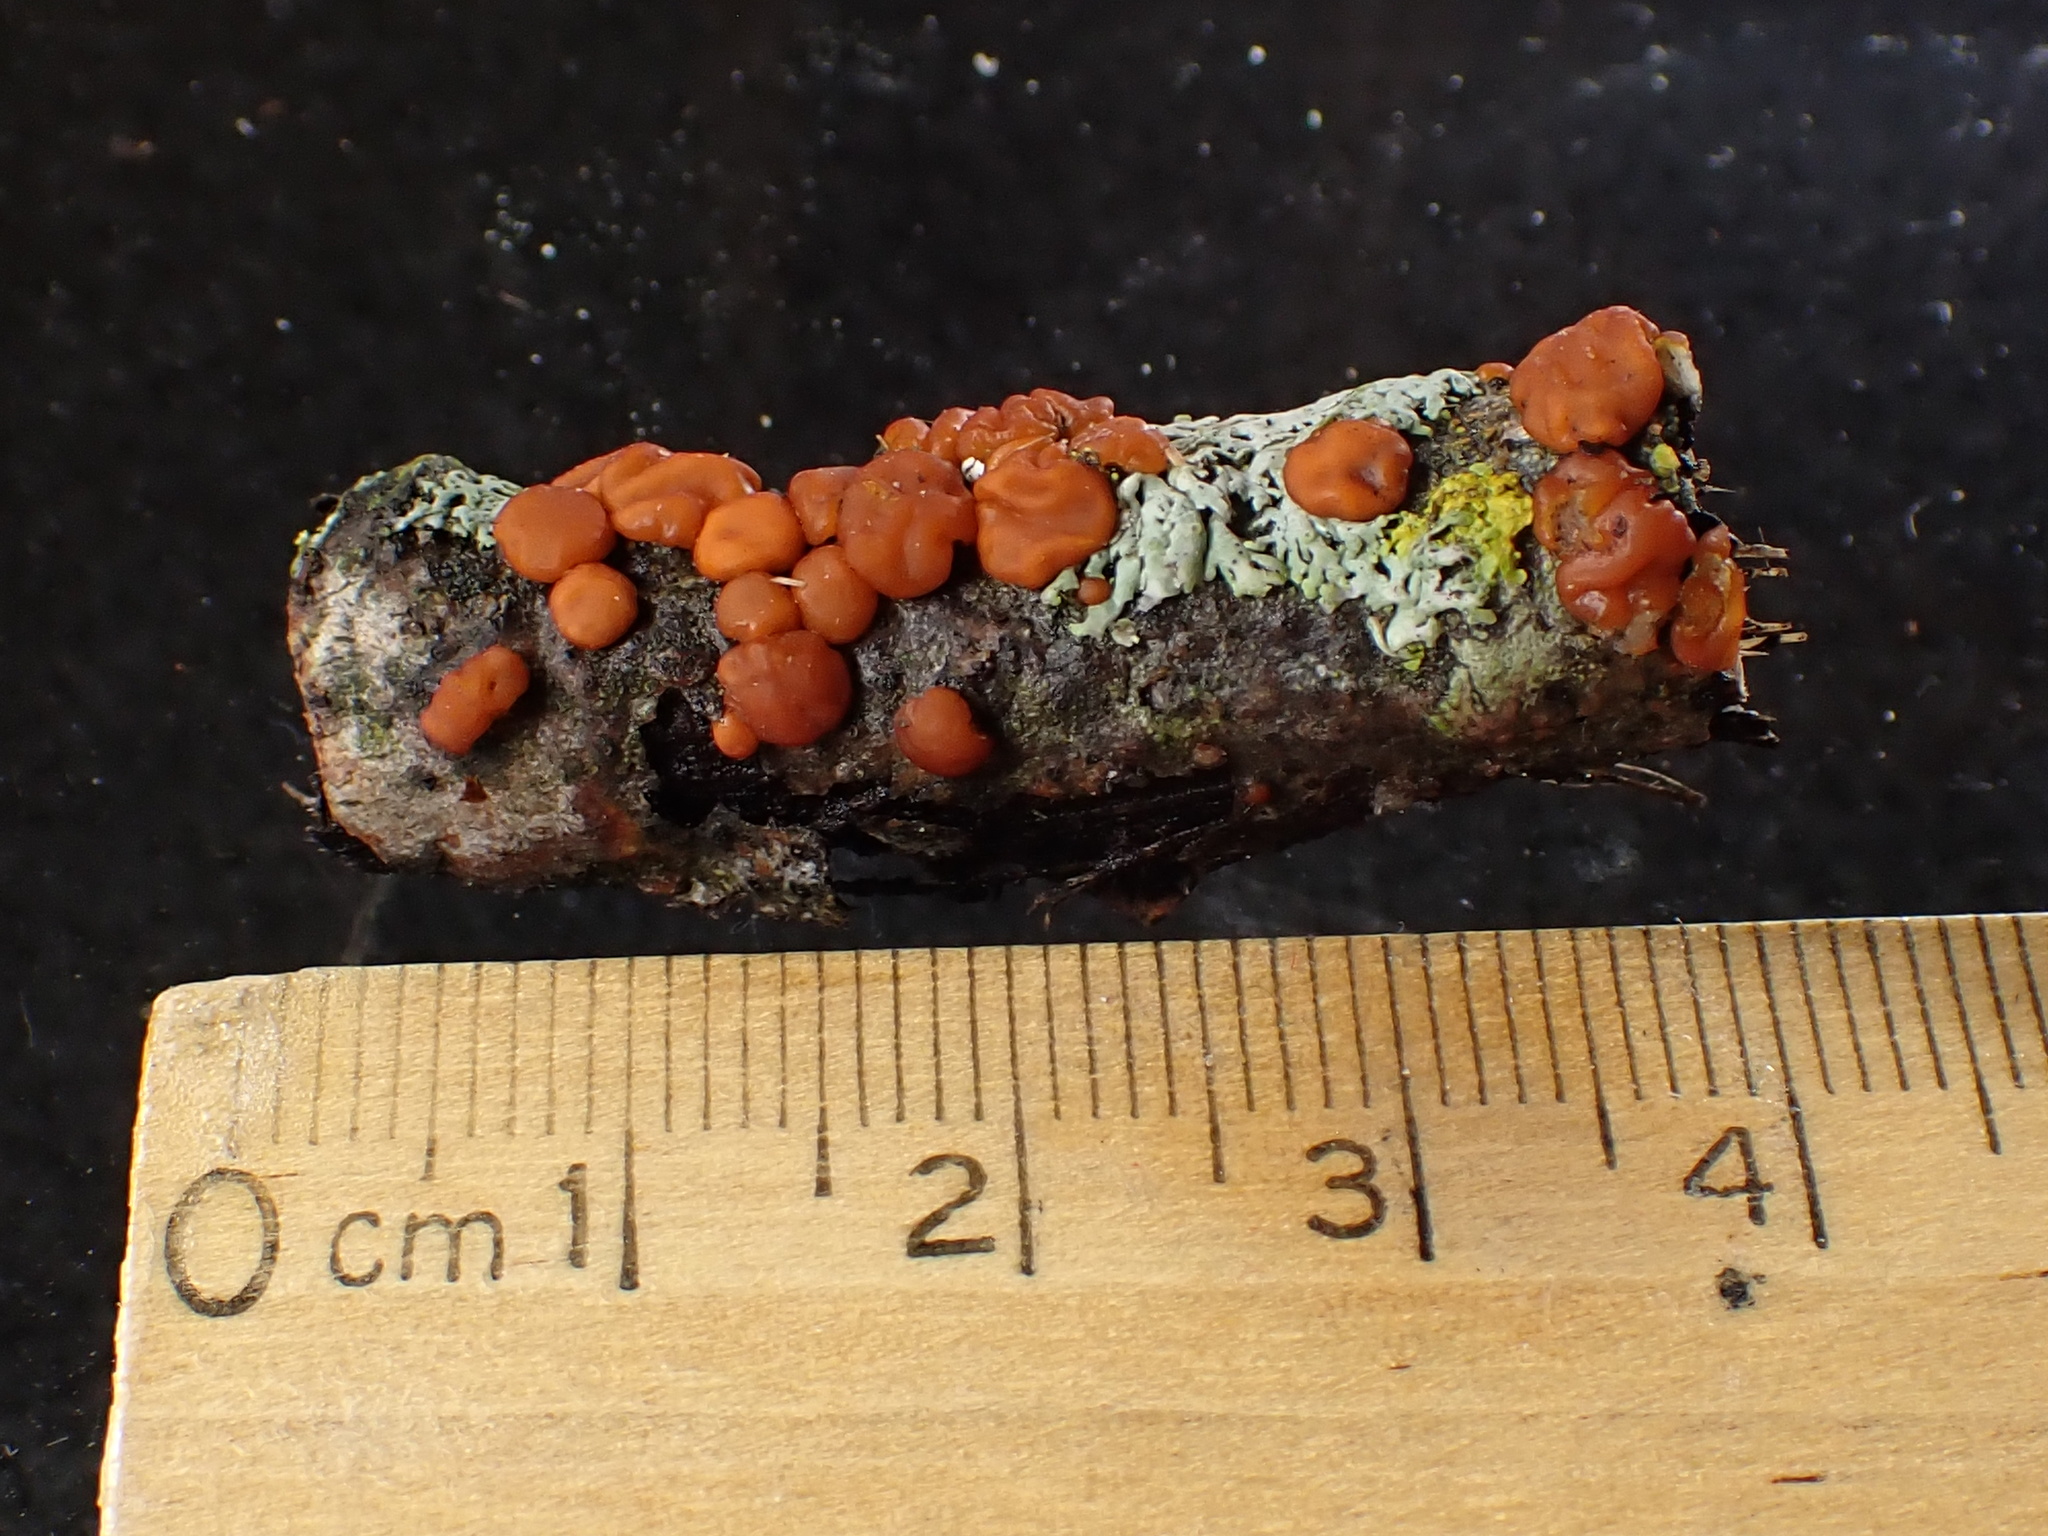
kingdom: Fungi
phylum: Basidiomycota
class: Agaricomycetes
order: Russulales
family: Peniophoraceae
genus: Peniophora
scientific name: Peniophora rufa
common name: Red tree brain fungus
